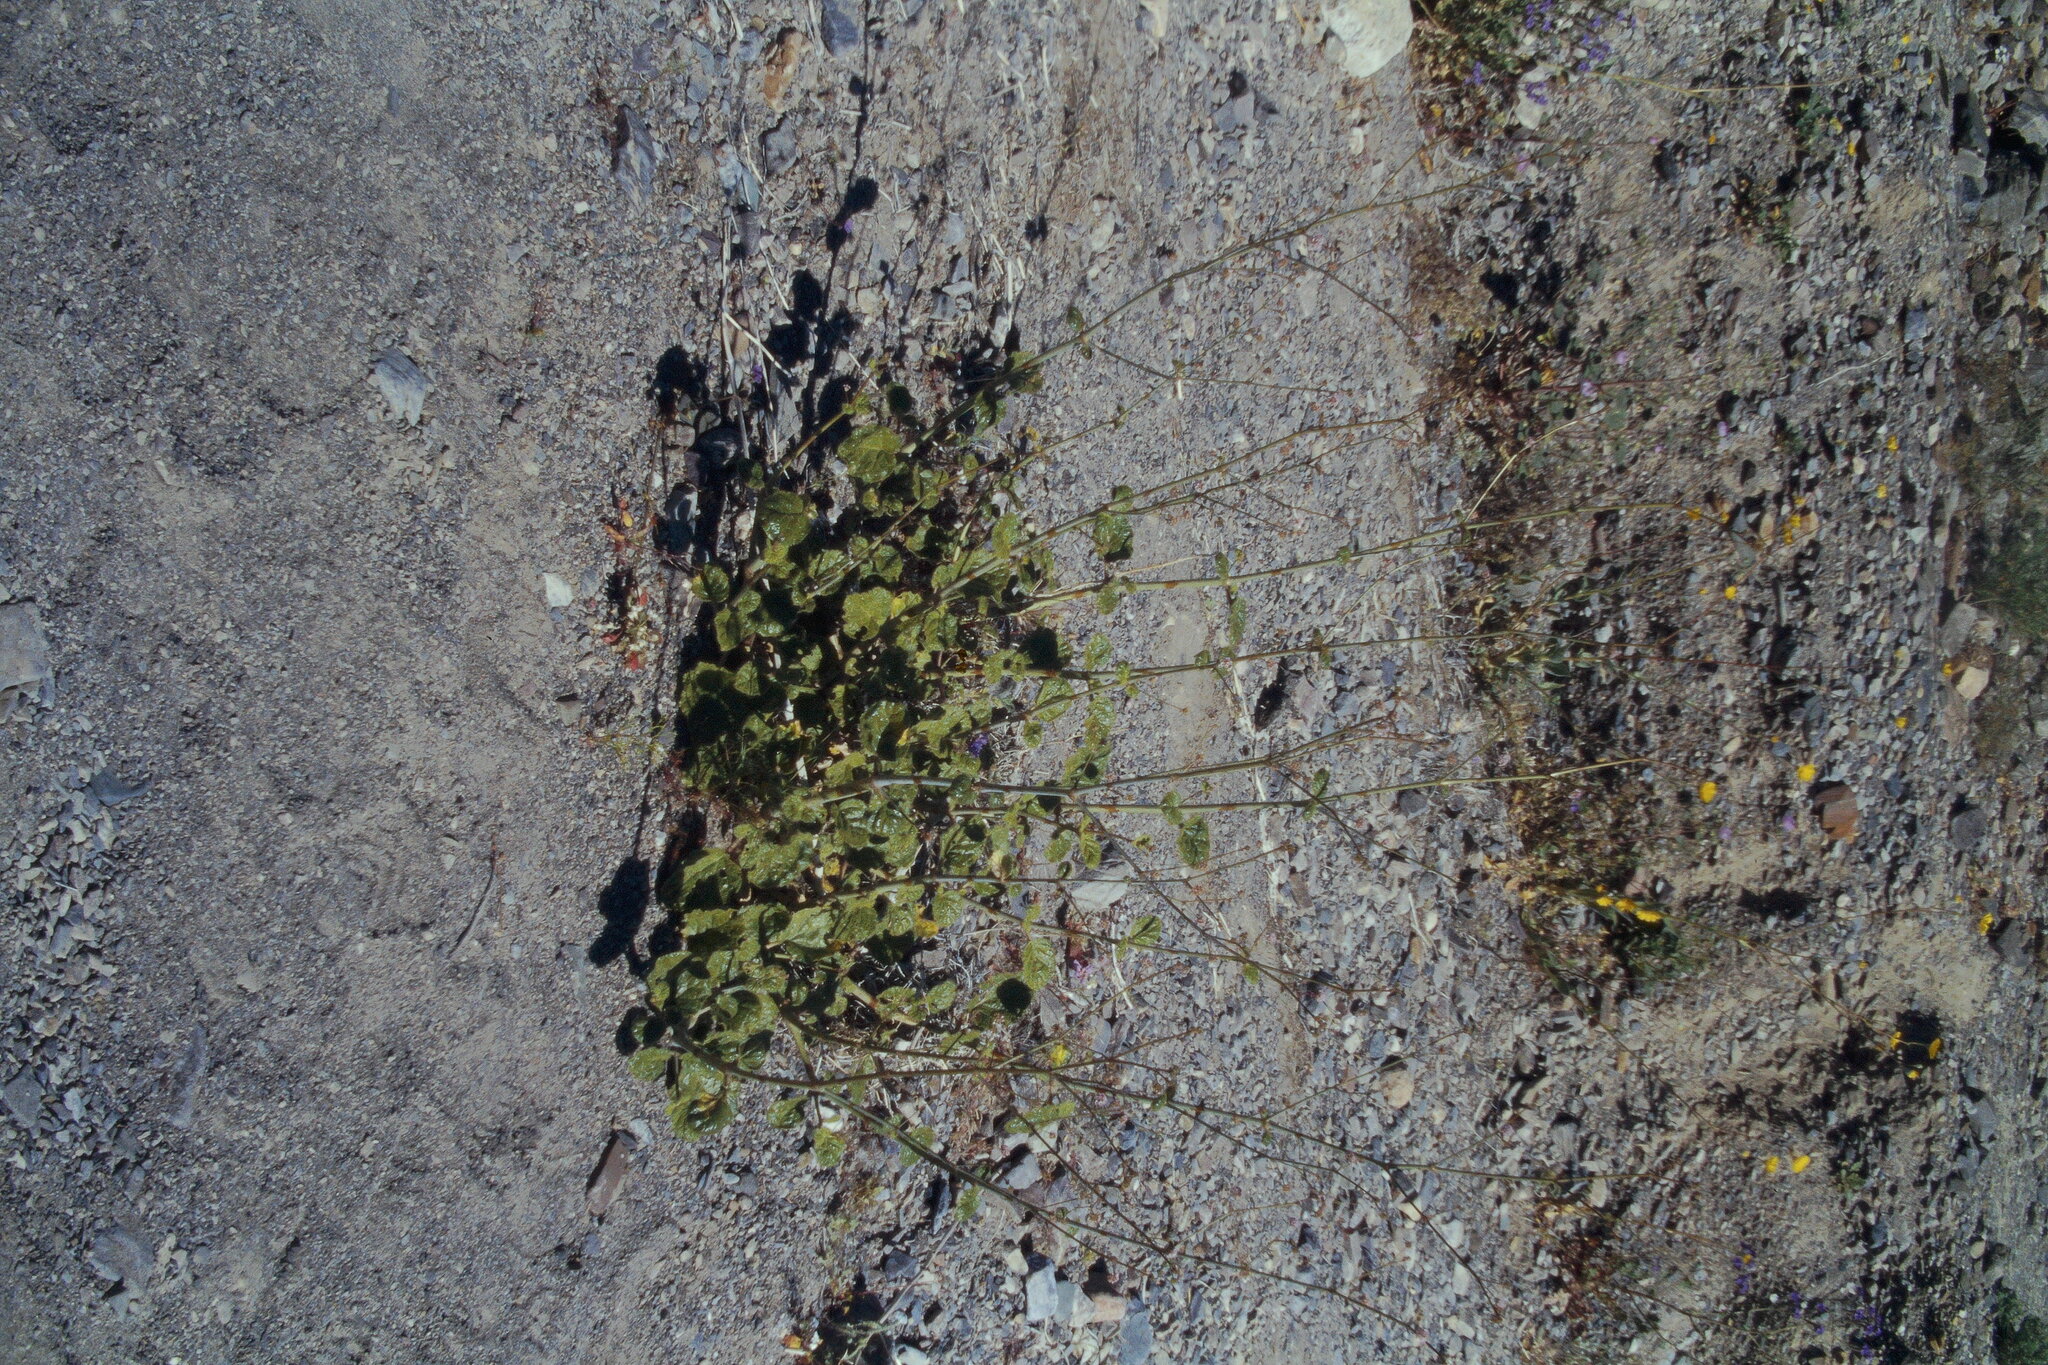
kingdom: Plantae
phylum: Tracheophyta
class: Magnoliopsida
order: Caryophyllales
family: Nyctaginaceae
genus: Anulocaulis
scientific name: Anulocaulis annulatus
